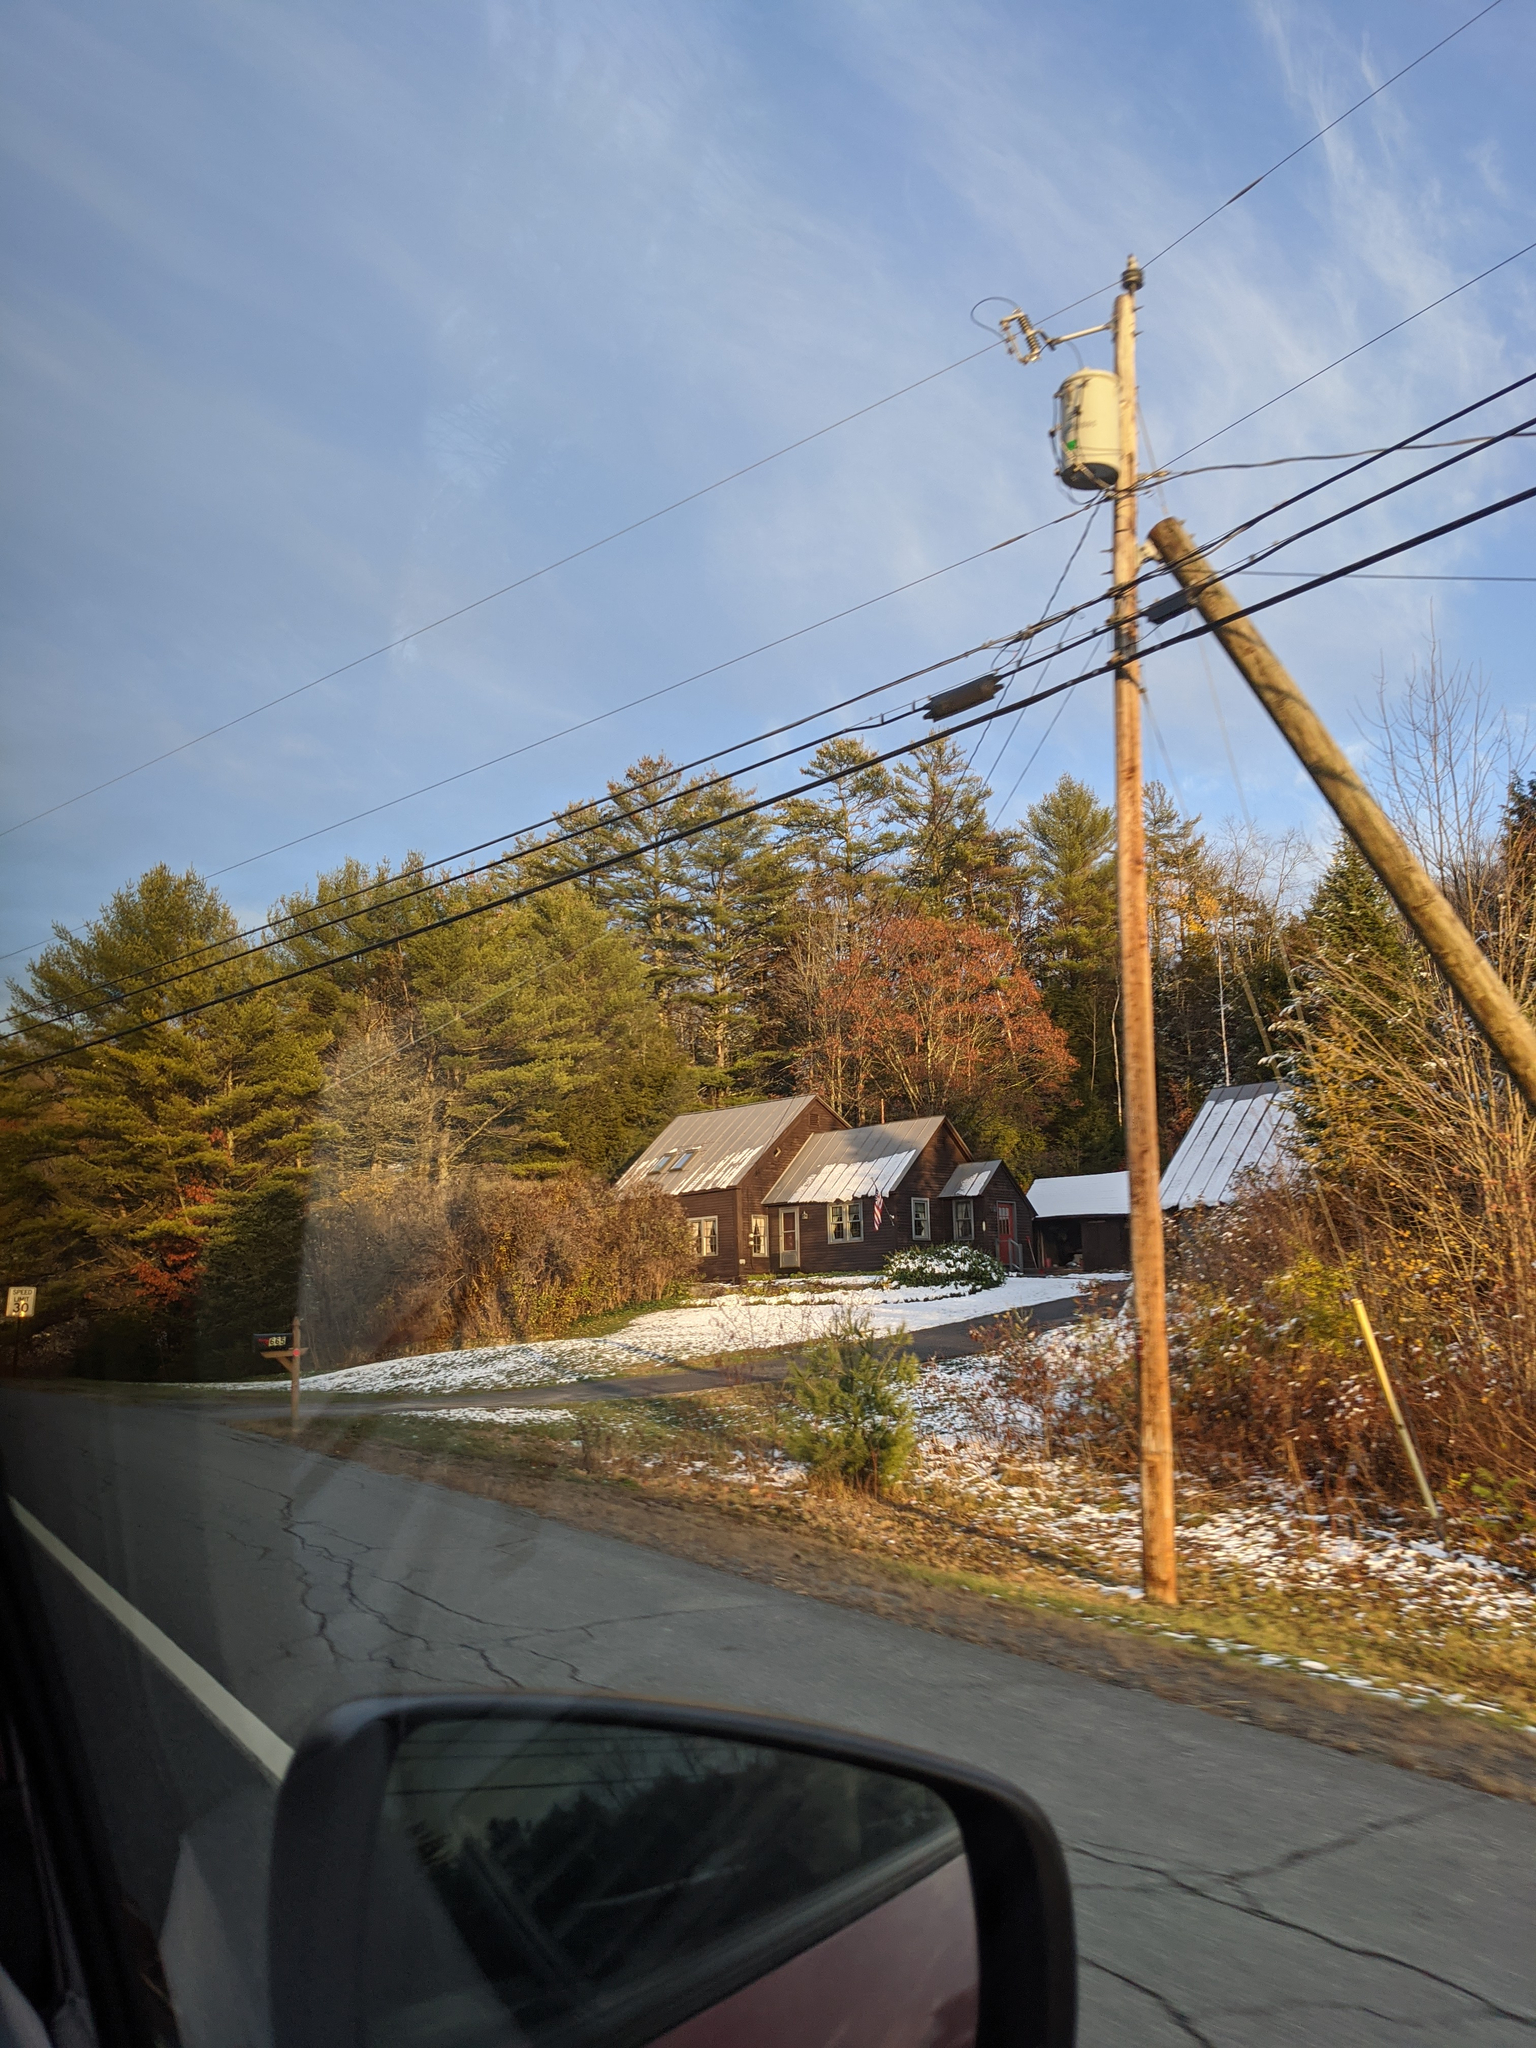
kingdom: Plantae
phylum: Tracheophyta
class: Pinopsida
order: Pinales
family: Pinaceae
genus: Pinus
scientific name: Pinus strobus
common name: Weymouth pine
